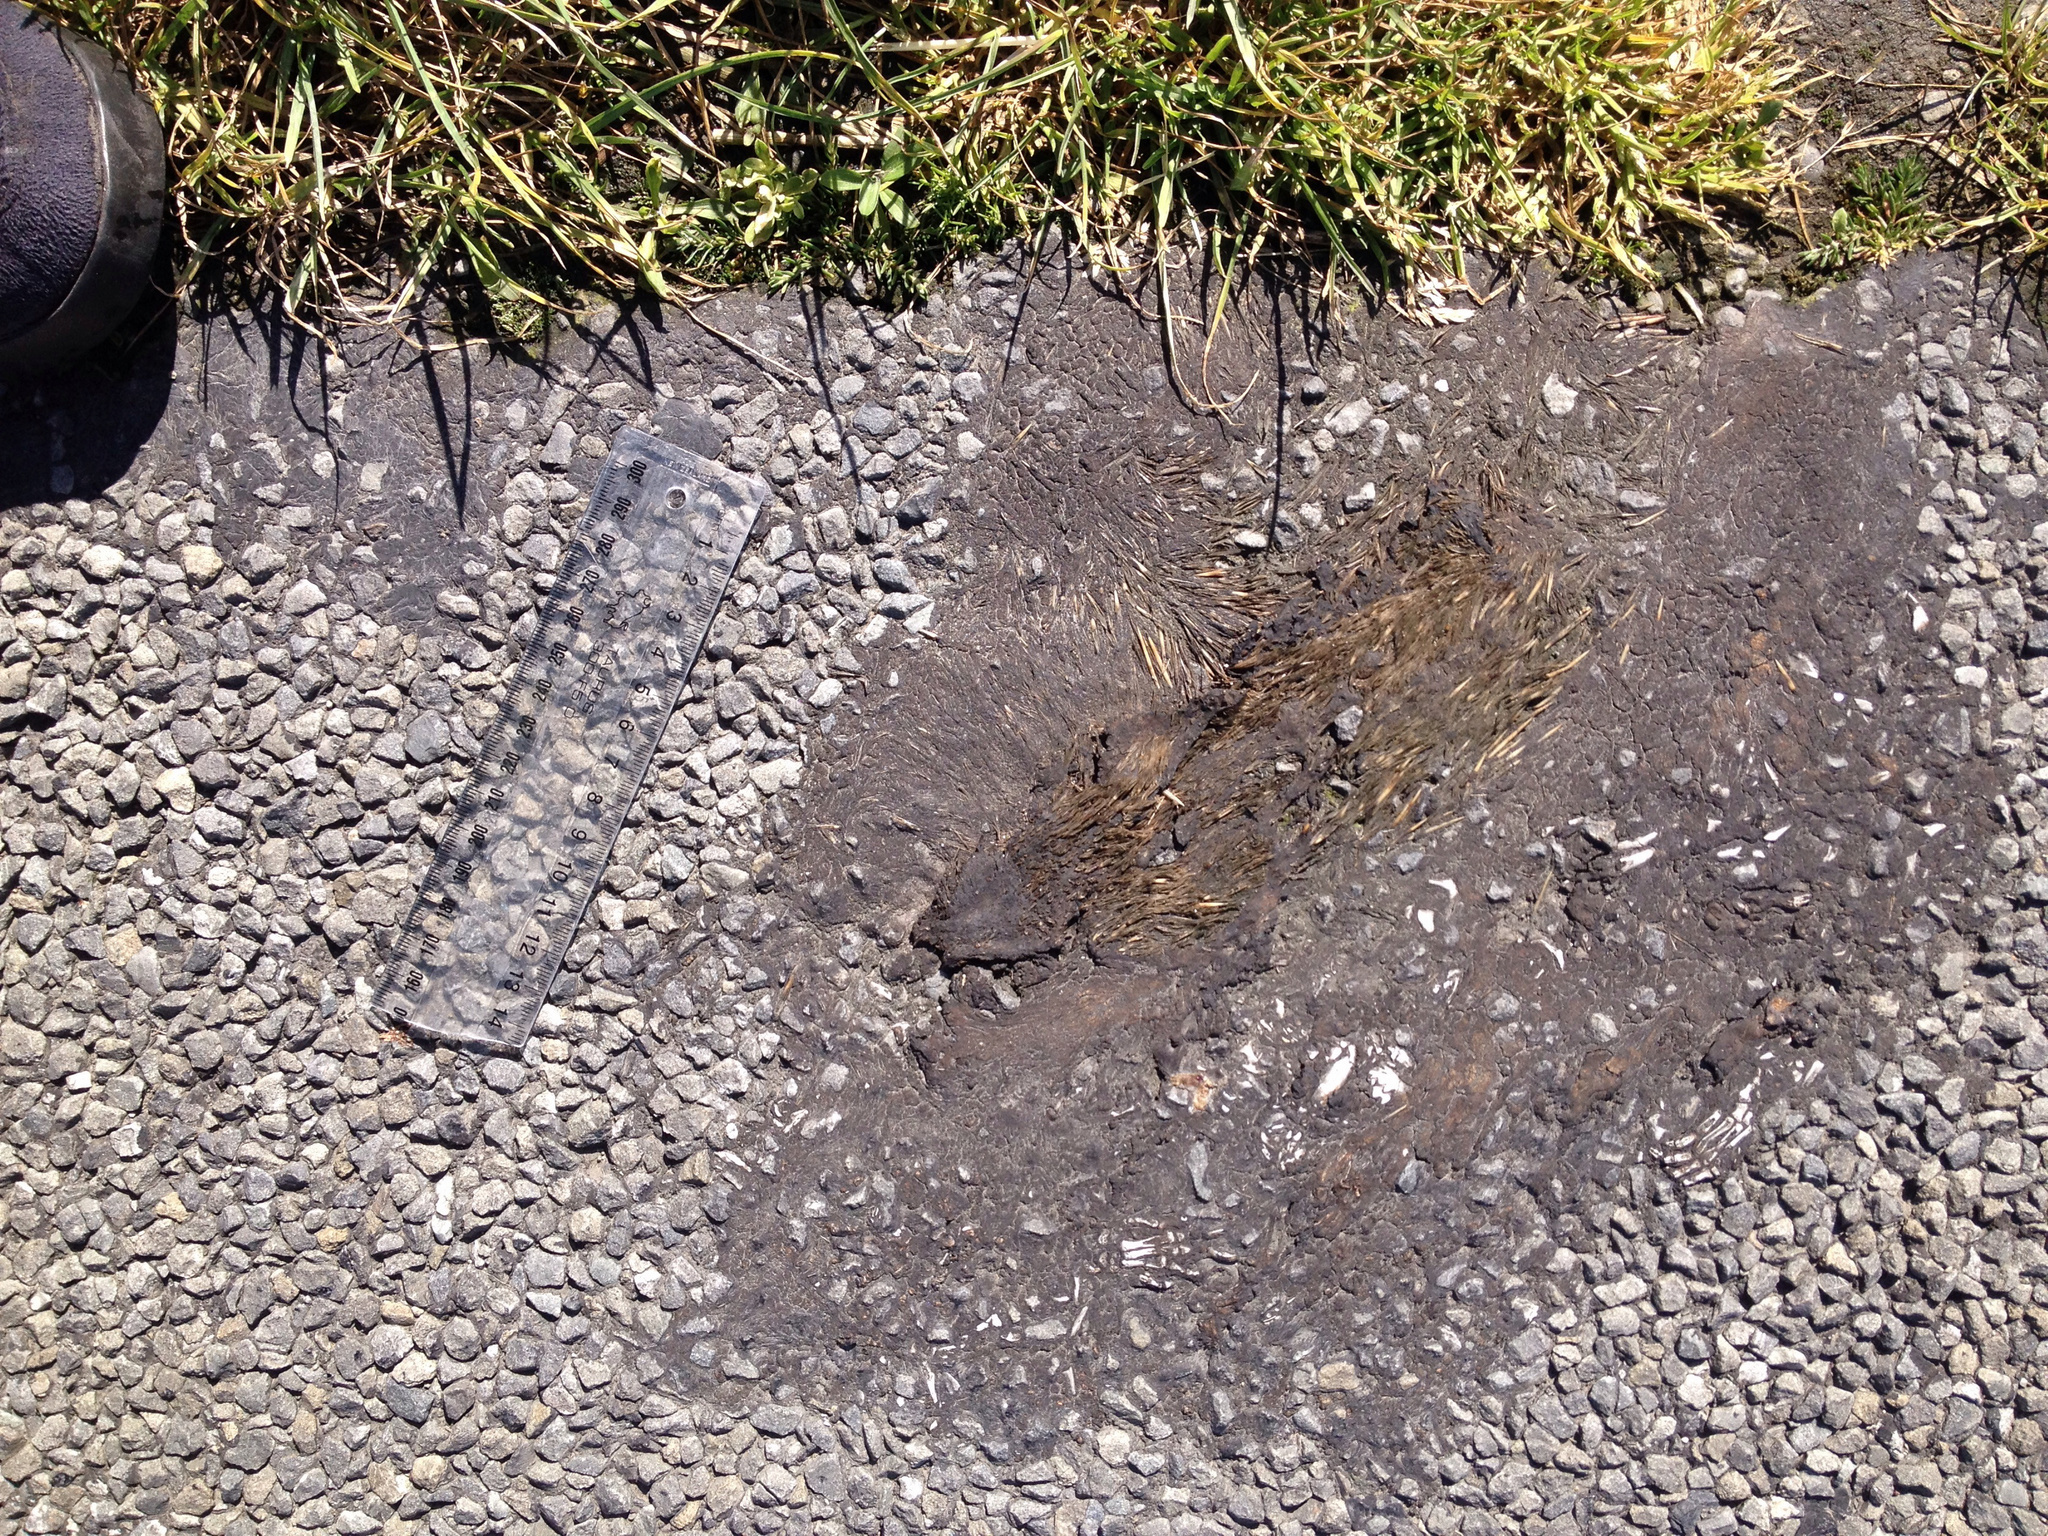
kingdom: Animalia
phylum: Chordata
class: Mammalia
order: Erinaceomorpha
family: Erinaceidae
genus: Erinaceus
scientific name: Erinaceus europaeus
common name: West european hedgehog
